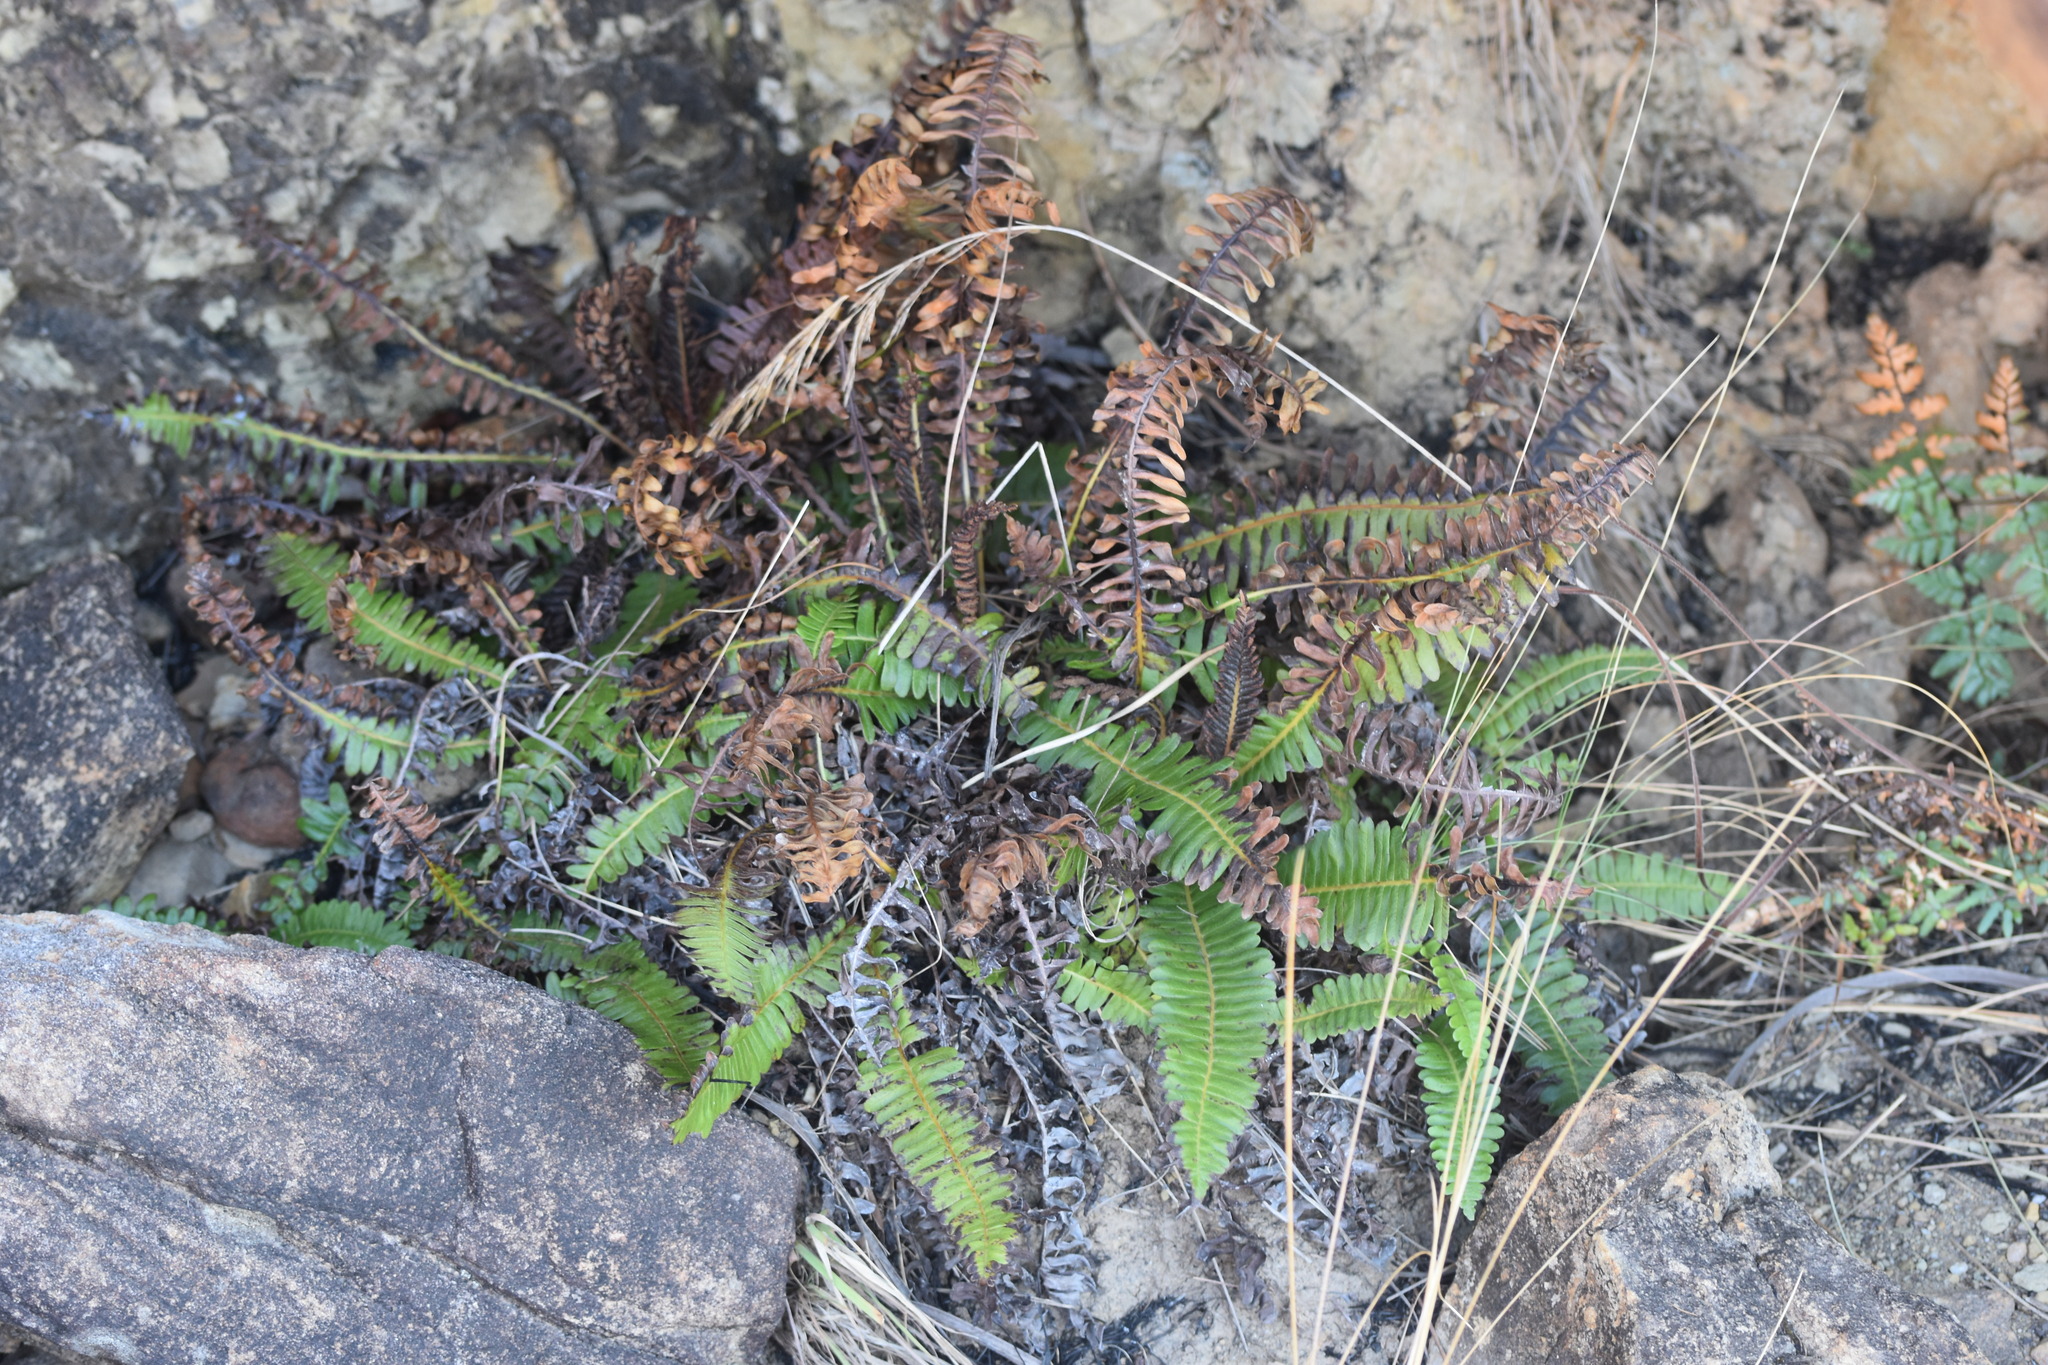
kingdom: Plantae
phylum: Tracheophyta
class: Polypodiopsida
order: Polypodiales
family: Blechnaceae
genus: Blechnum
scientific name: Blechnum australe
